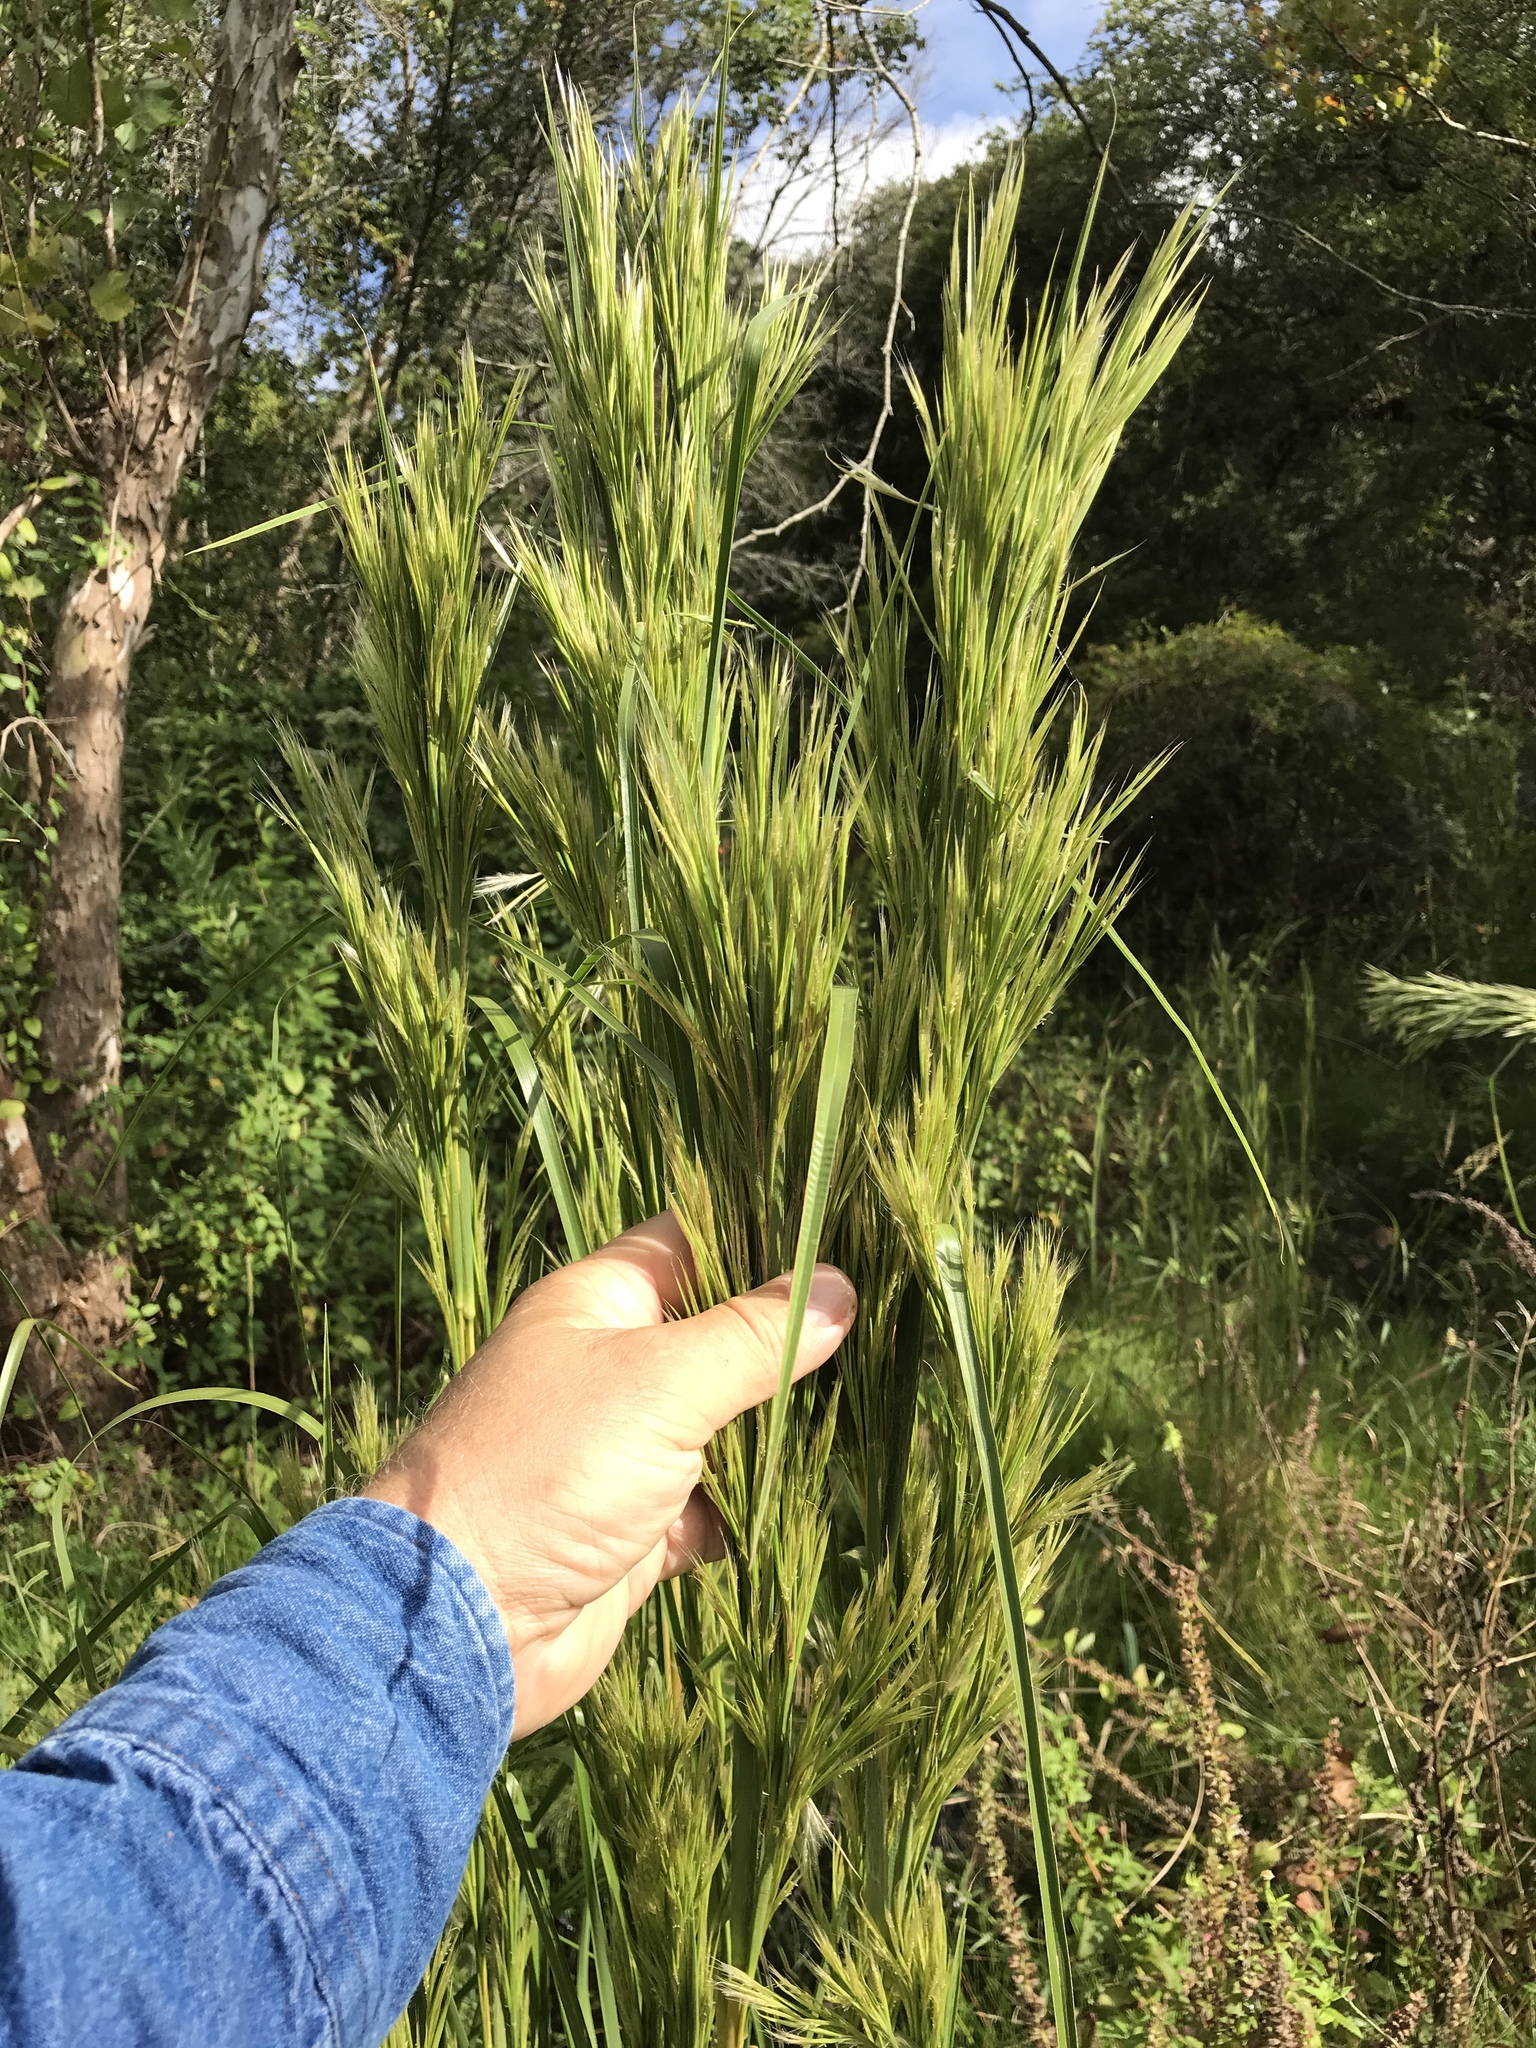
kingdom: Plantae
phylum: Tracheophyta
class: Liliopsida
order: Poales
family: Poaceae
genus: Andropogon
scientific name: Andropogon tenuispatheus
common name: Bushy bluestem
